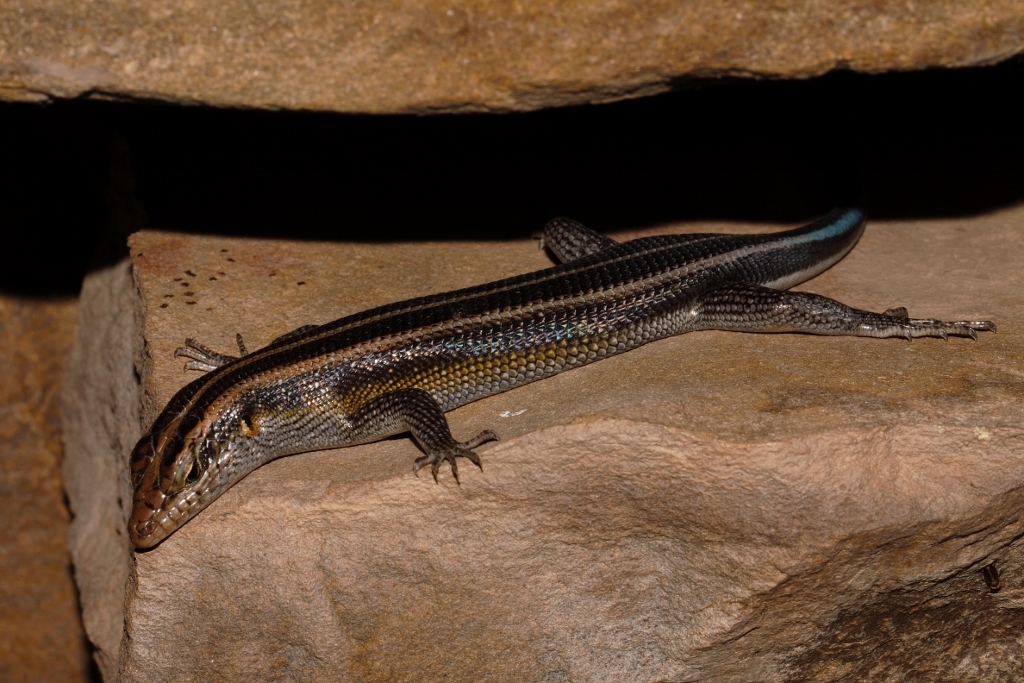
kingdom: Animalia
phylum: Chordata
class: Squamata
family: Scincidae
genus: Trachylepis
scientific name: Trachylepis margaritifera
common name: Rainbow skink
